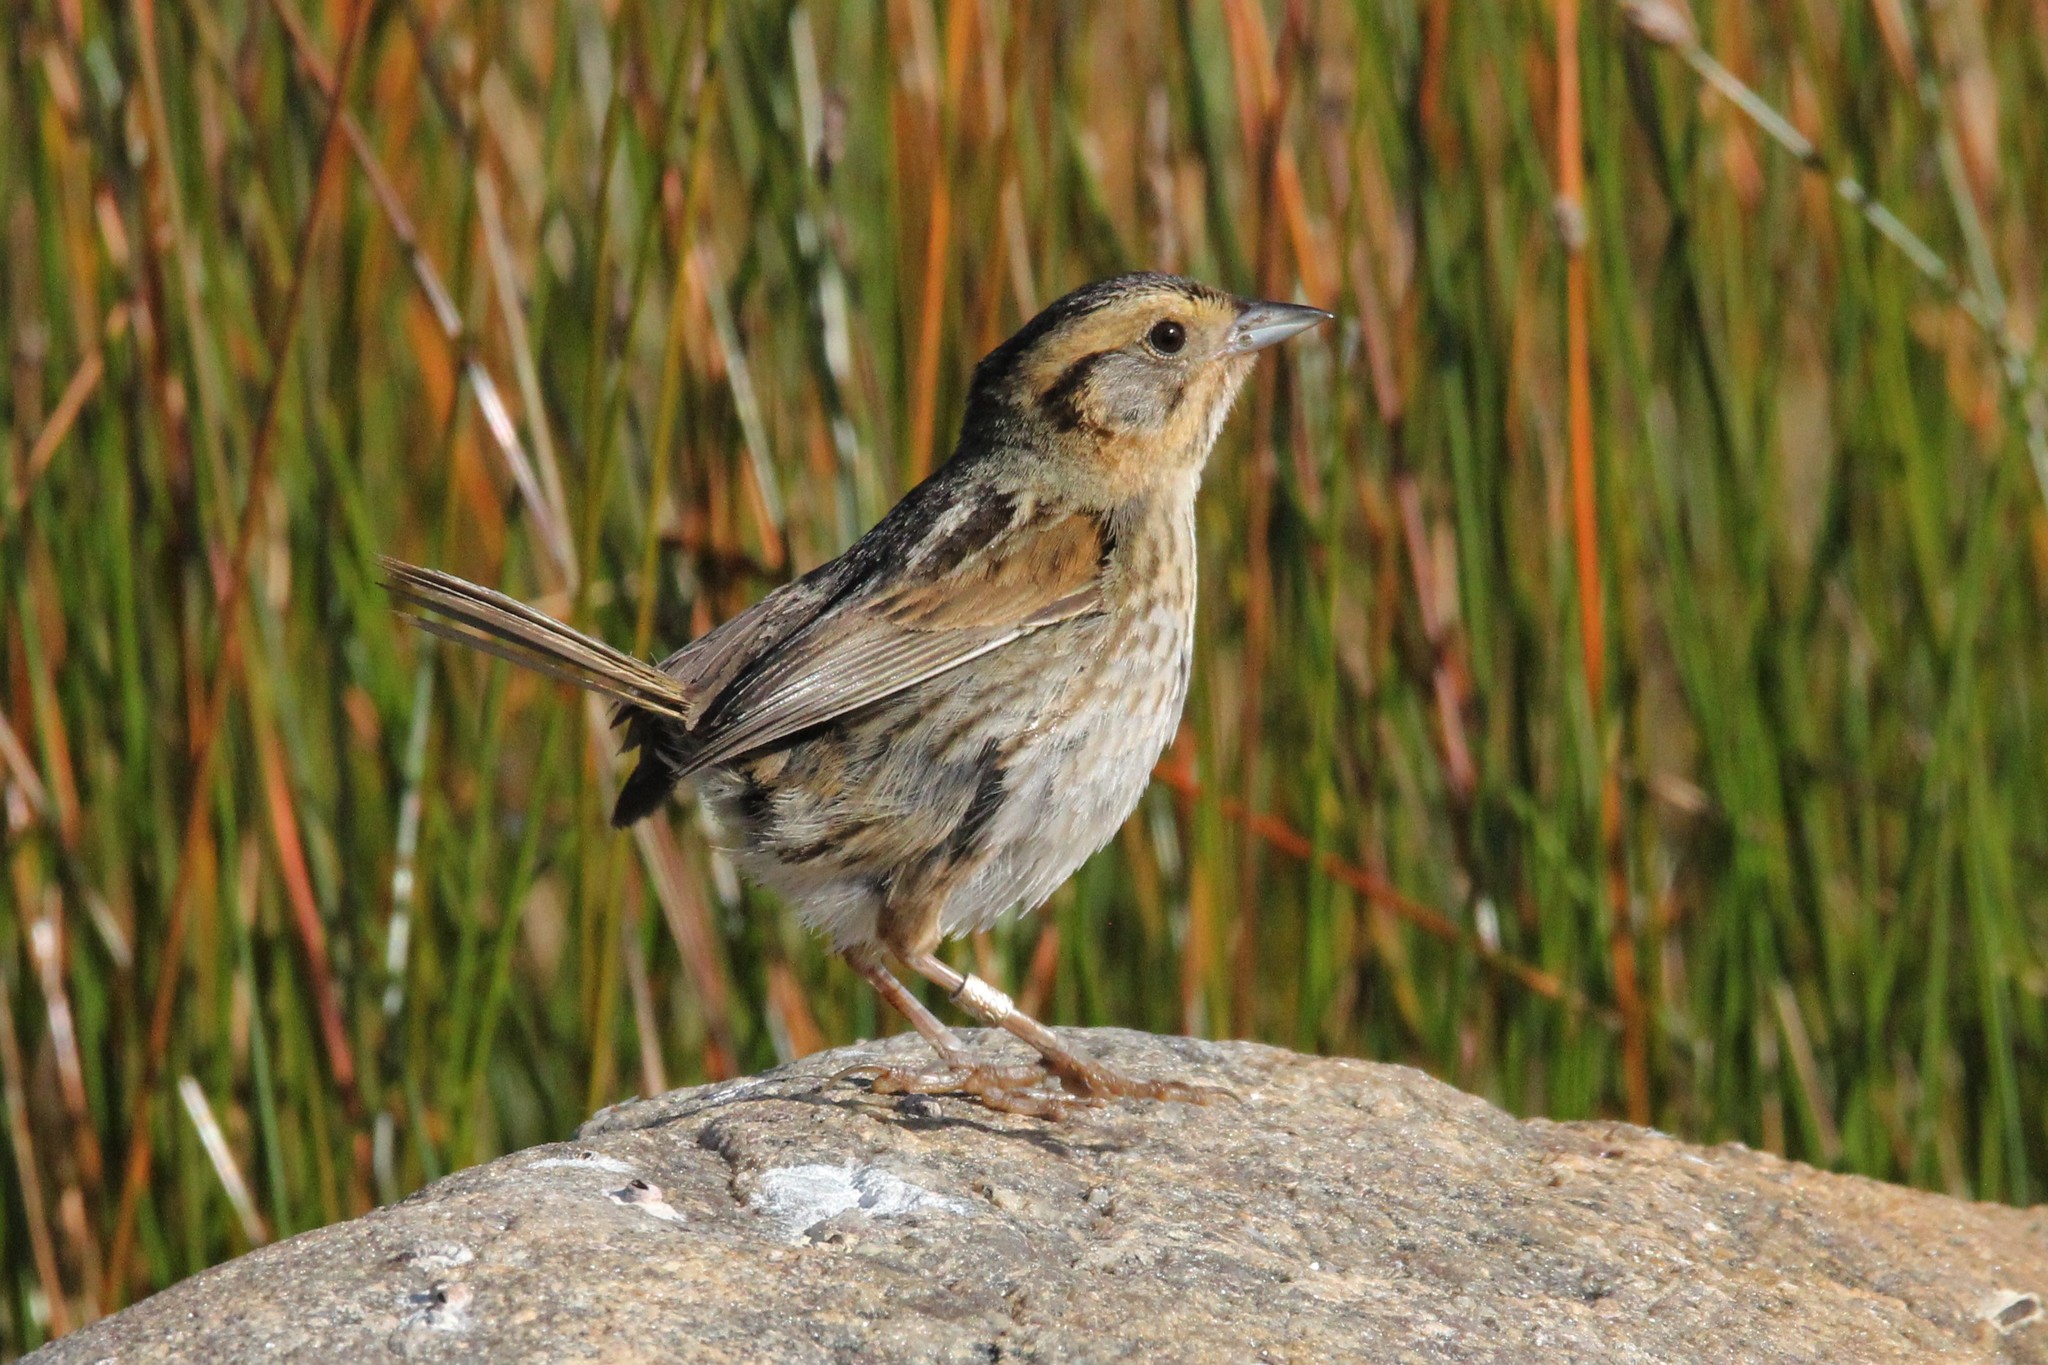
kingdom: Animalia
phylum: Chordata
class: Aves
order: Passeriformes
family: Passerellidae
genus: Ammospiza
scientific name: Ammospiza nelsoni
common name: Nelson's sparrow
